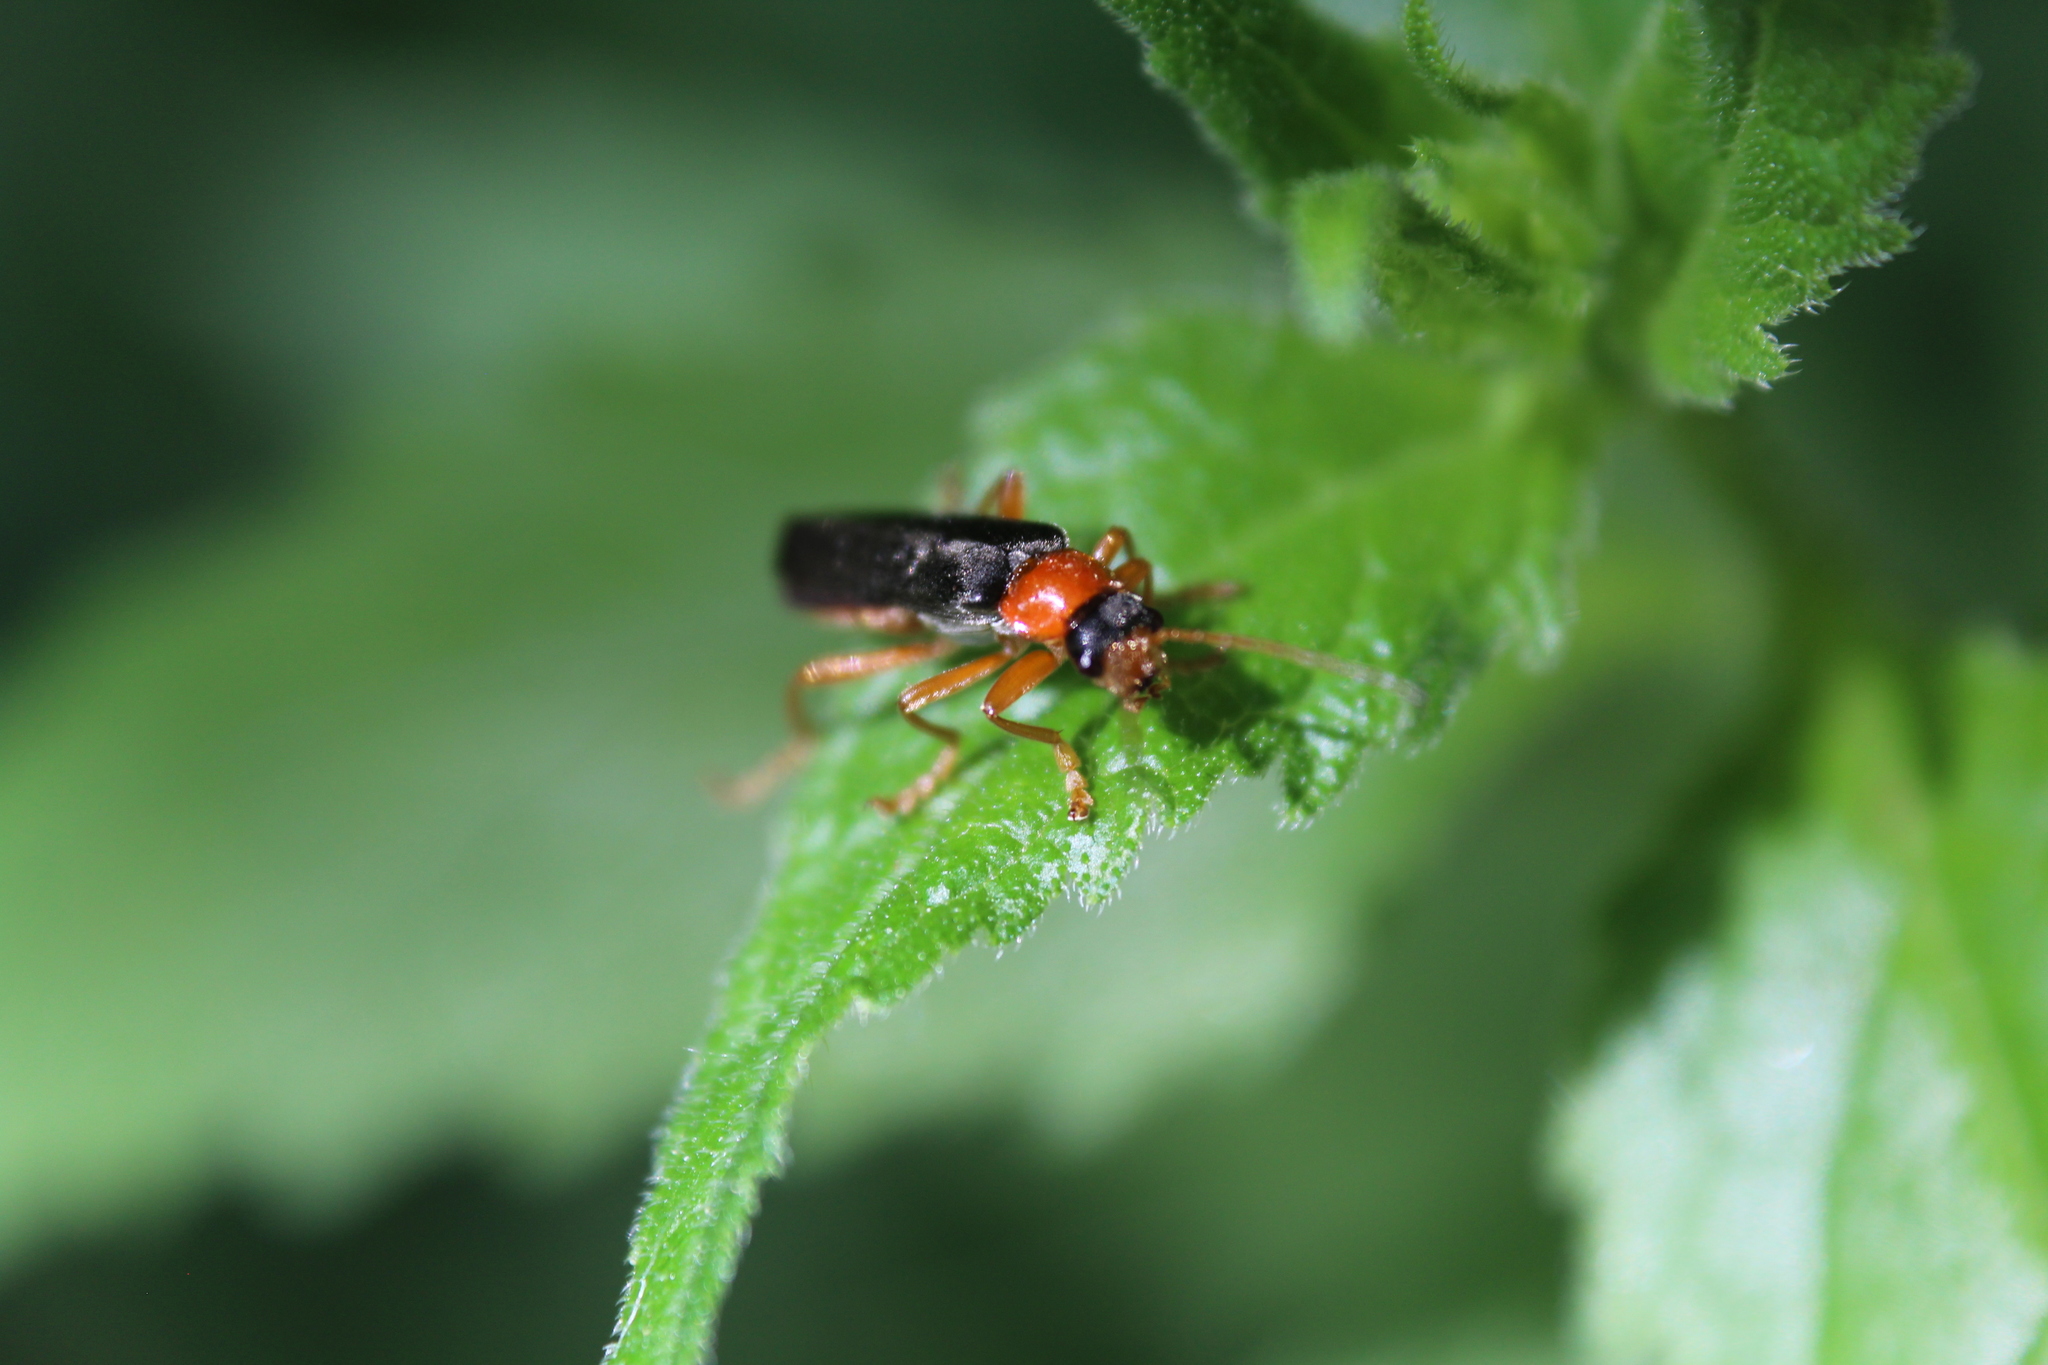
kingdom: Animalia
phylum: Arthropoda
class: Insecta
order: Coleoptera
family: Cantharidae
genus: Cantharis
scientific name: Cantharis pellucida
